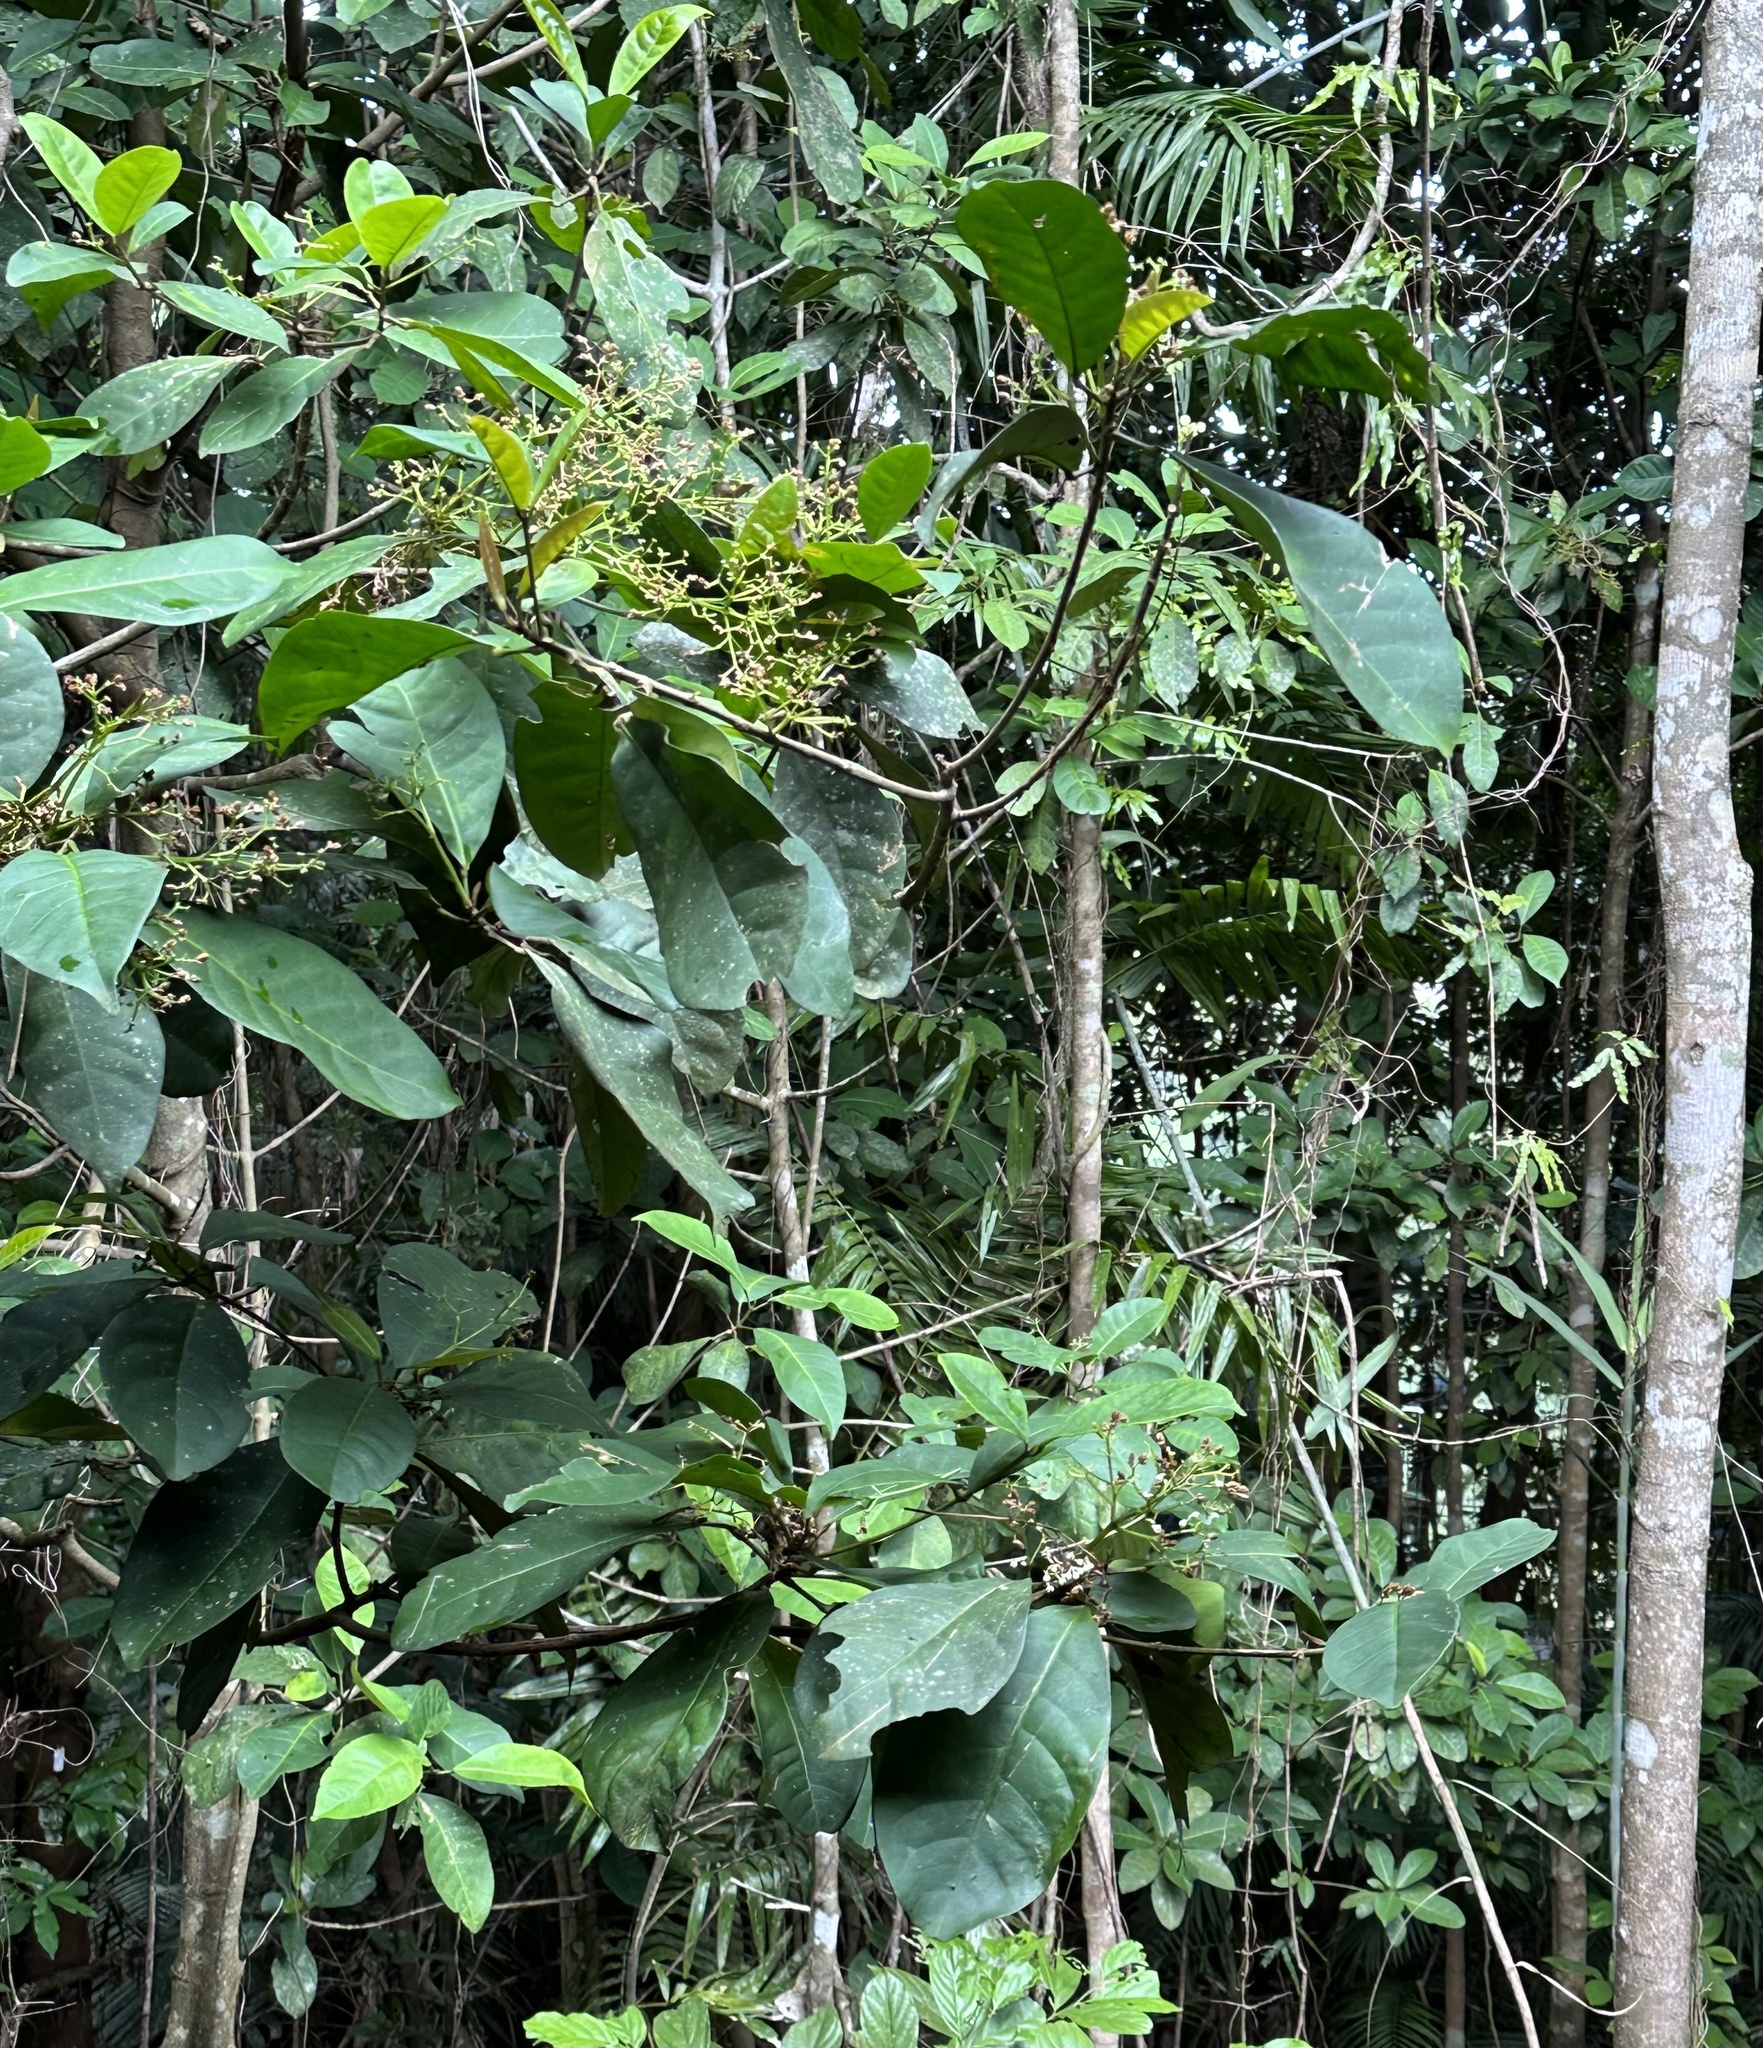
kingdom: Plantae
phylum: Tracheophyta
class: Magnoliopsida
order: Sapindales
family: Rutaceae
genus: Brombya
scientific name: Brombya platynema
